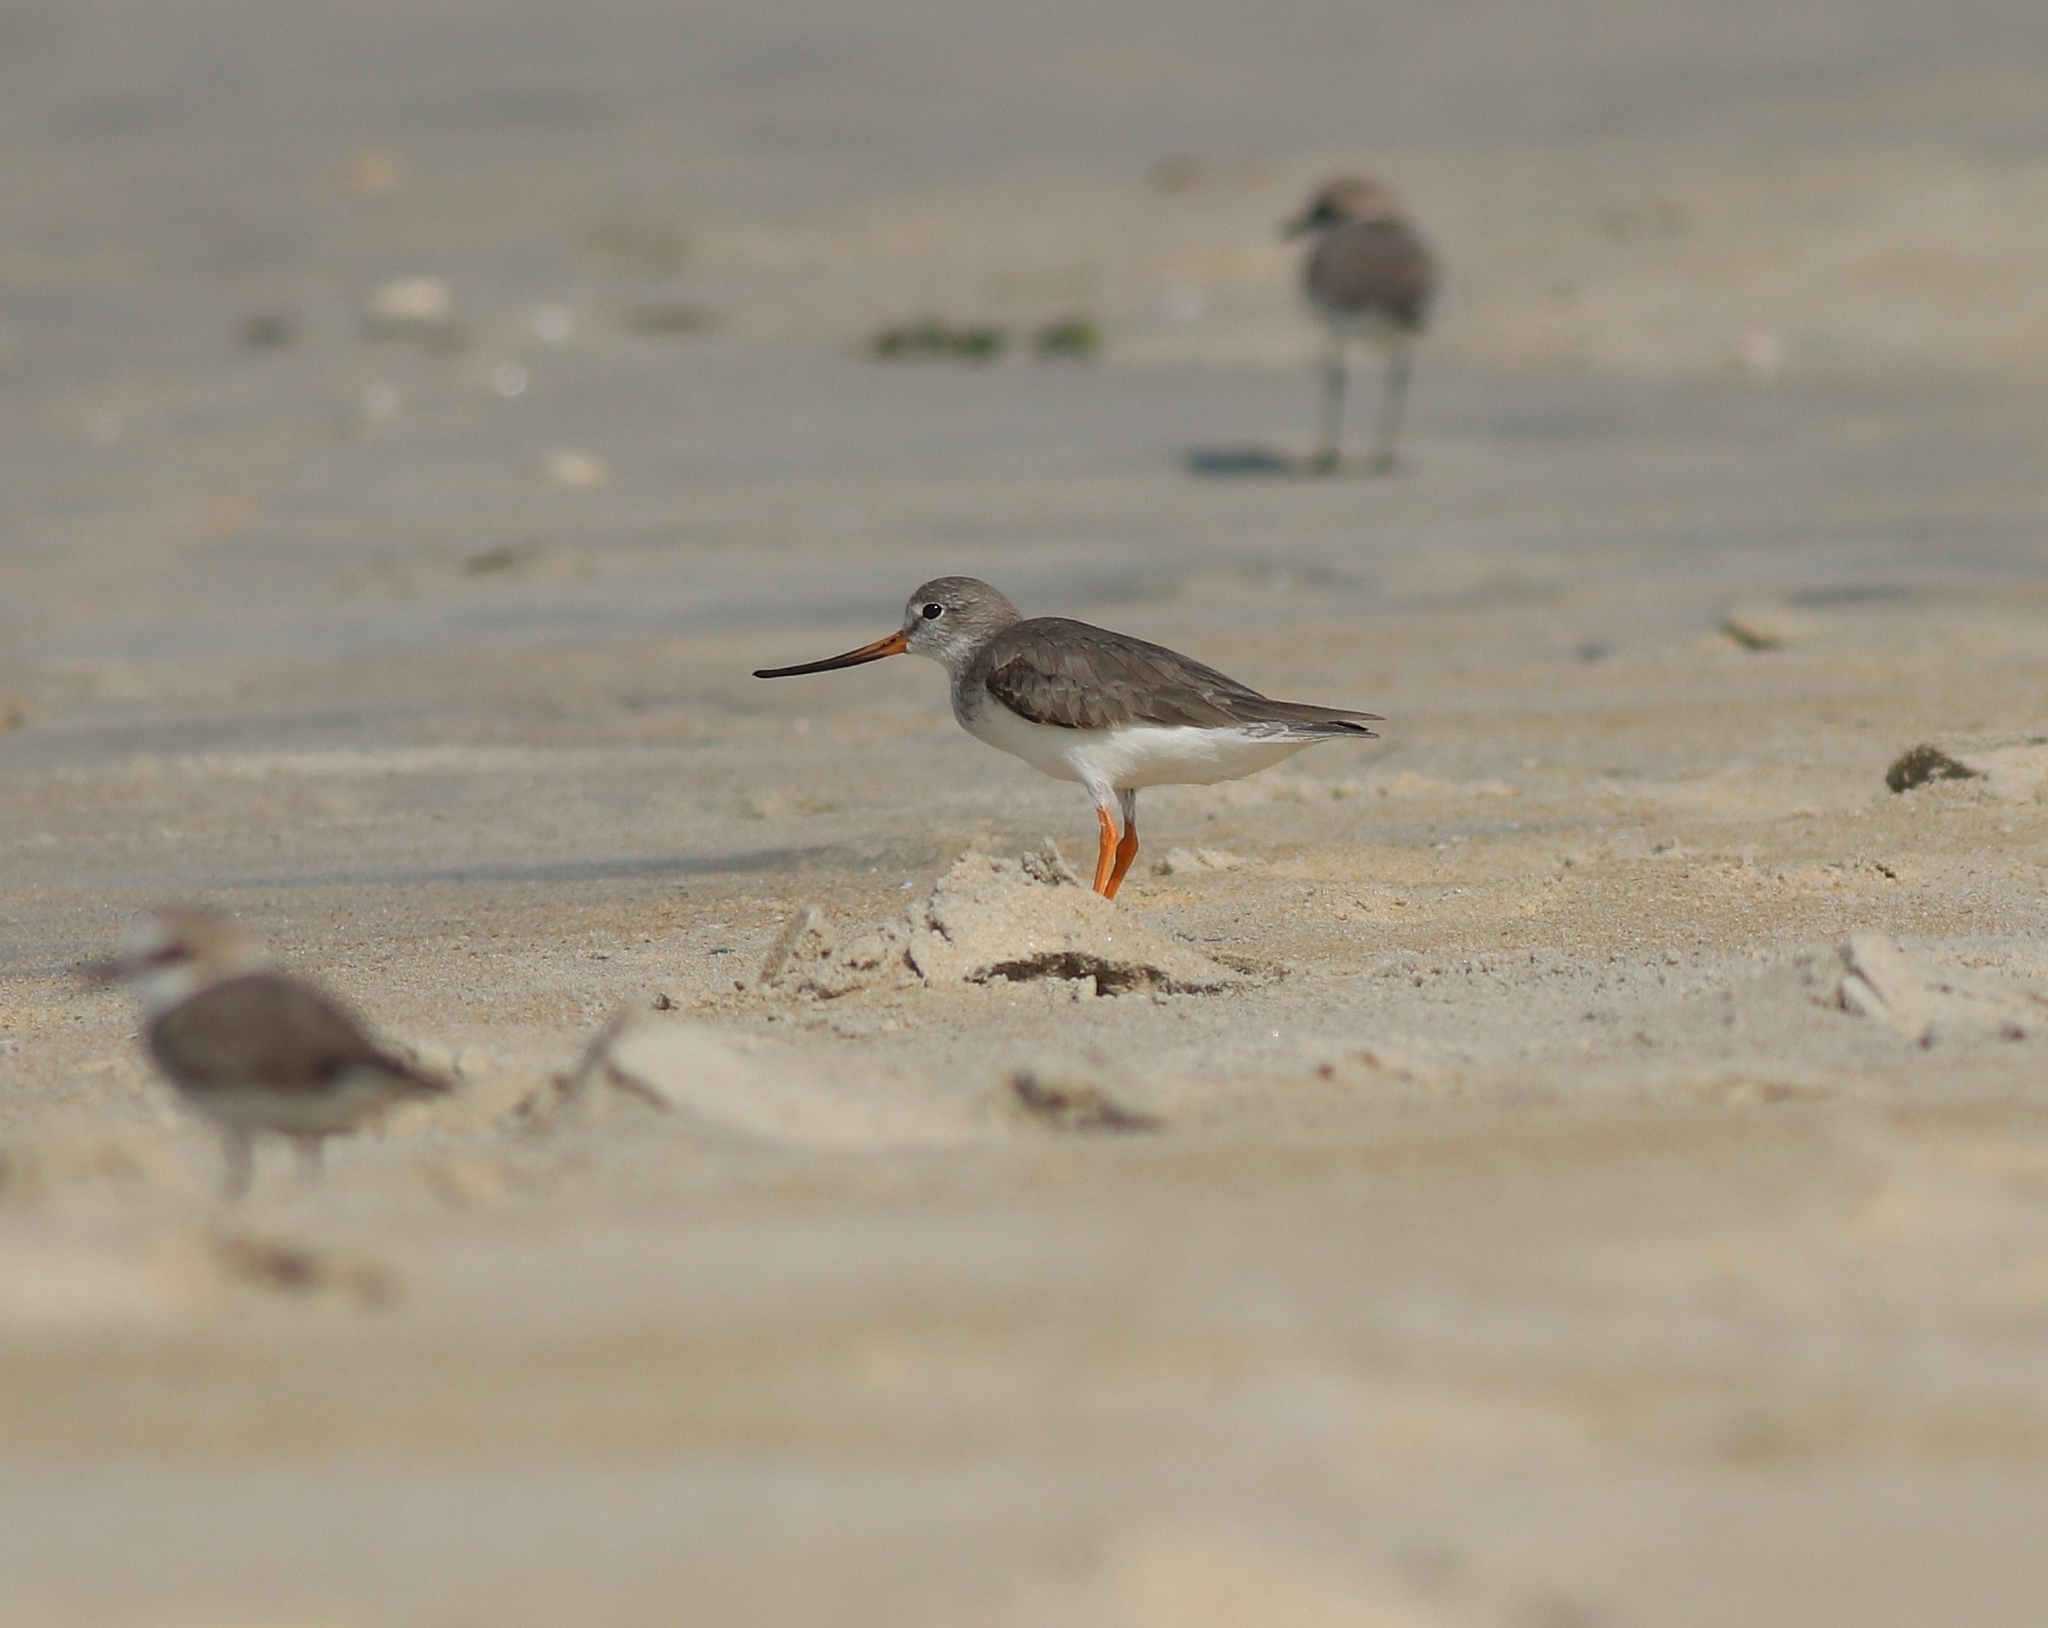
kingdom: Animalia
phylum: Chordata
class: Aves
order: Charadriiformes
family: Scolopacidae
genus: Xenus
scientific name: Xenus cinereus
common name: Terek sandpiper
